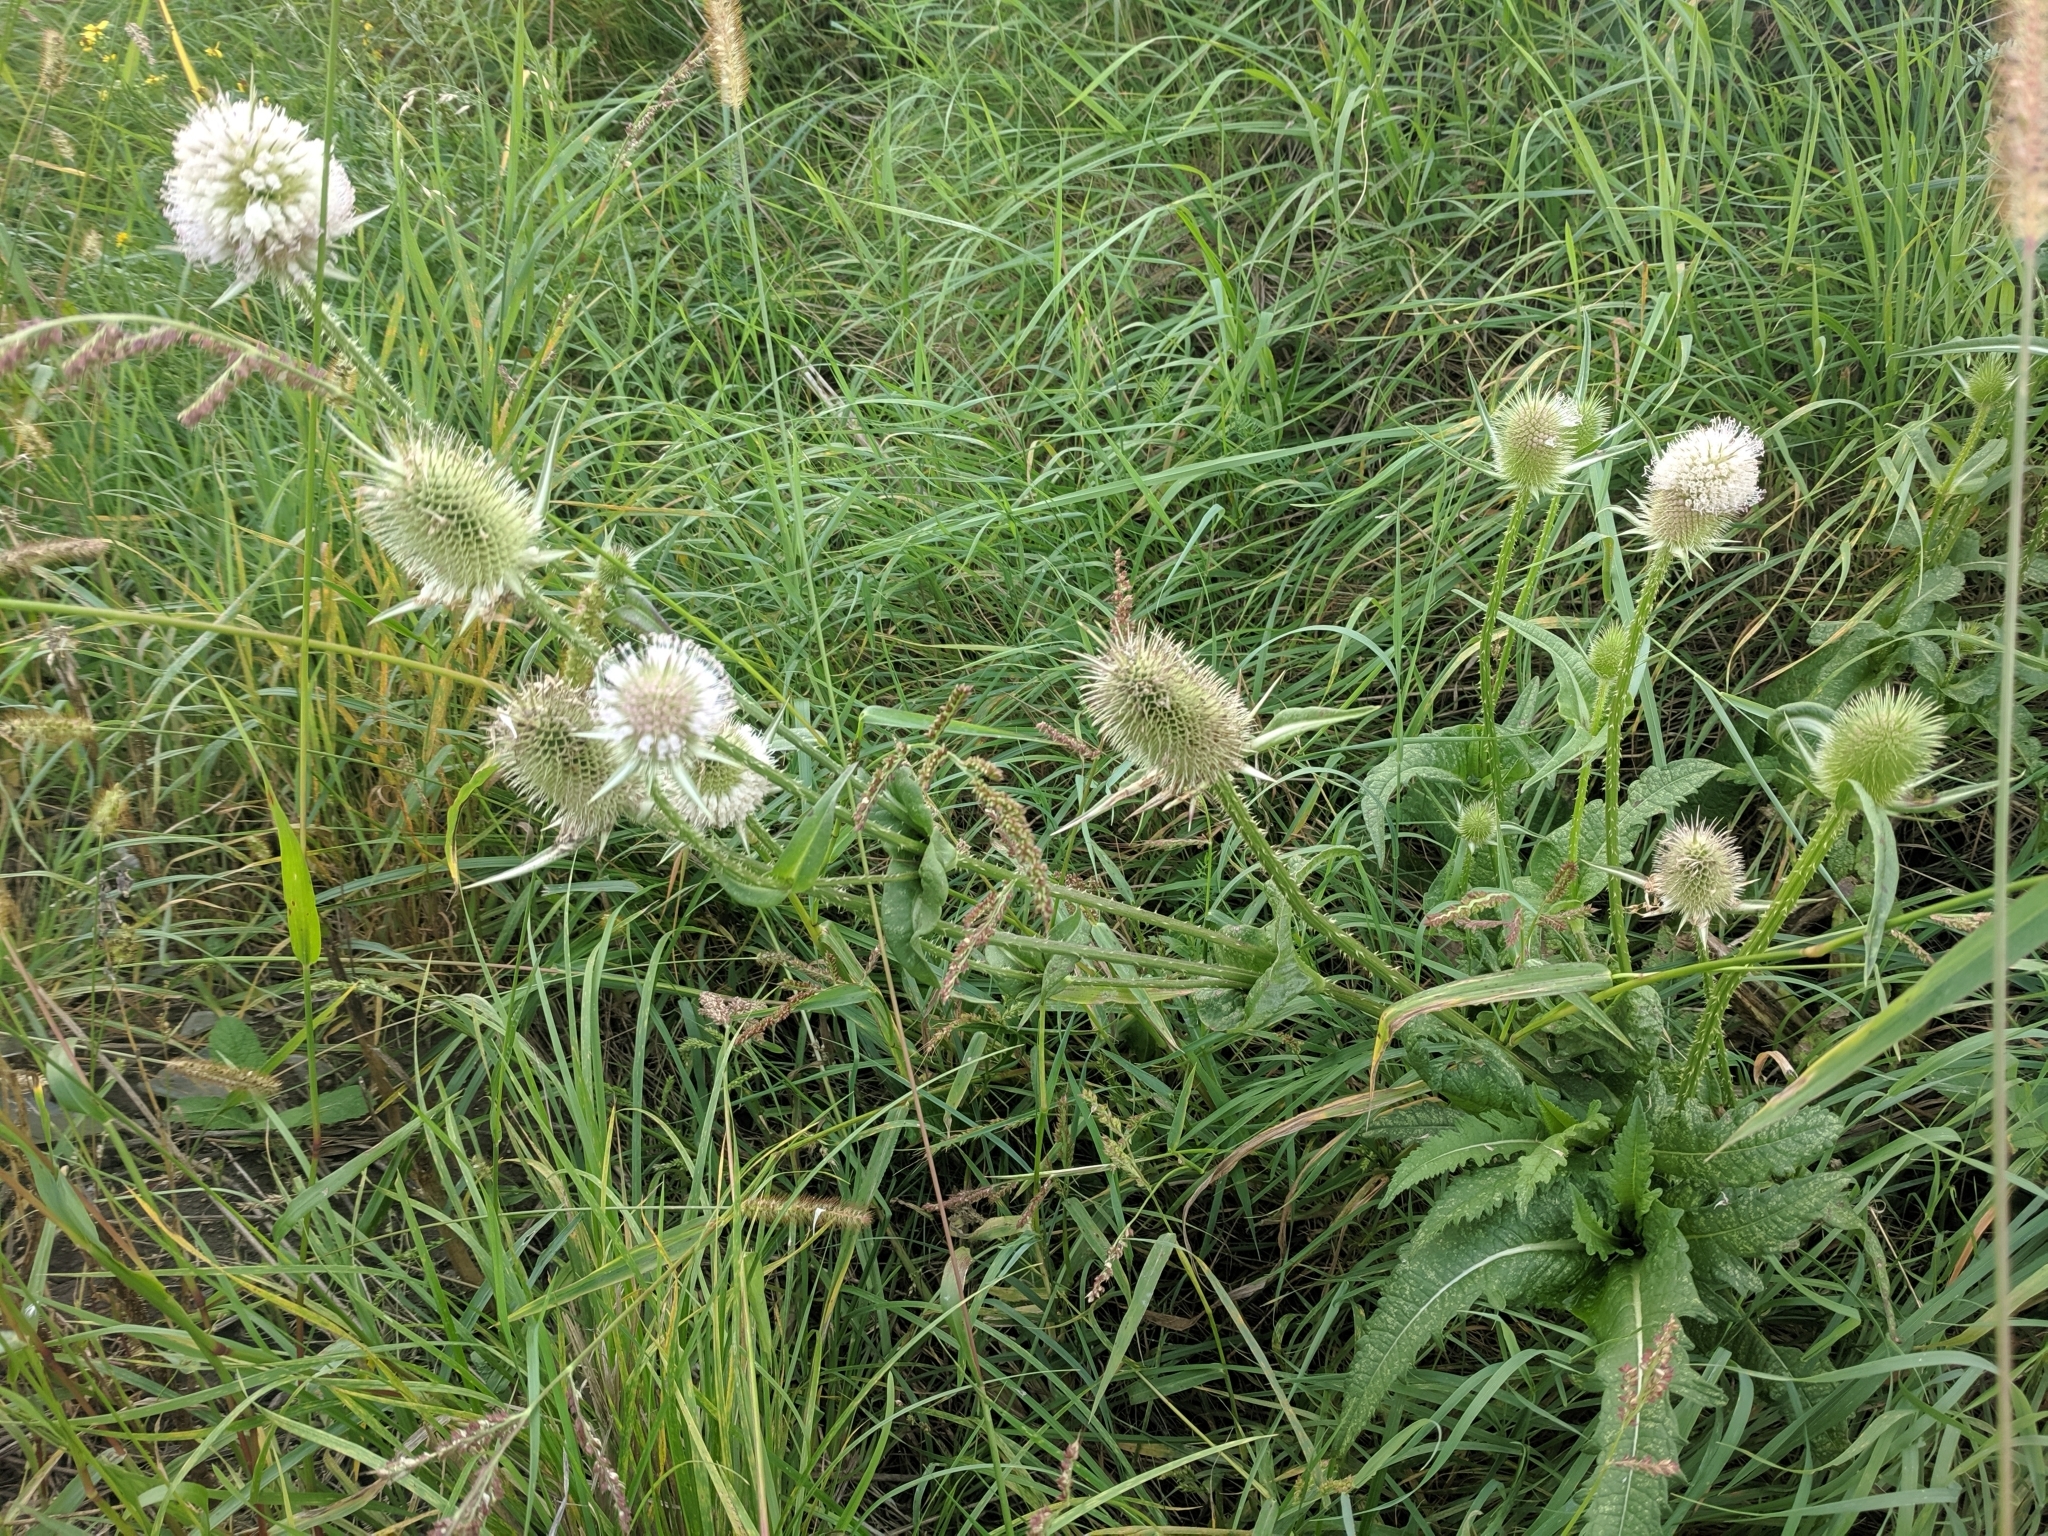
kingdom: Plantae
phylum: Tracheophyta
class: Magnoliopsida
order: Dipsacales
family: Caprifoliaceae
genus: Dipsacus
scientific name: Dipsacus laciniatus
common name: Cut-leaved teasel
